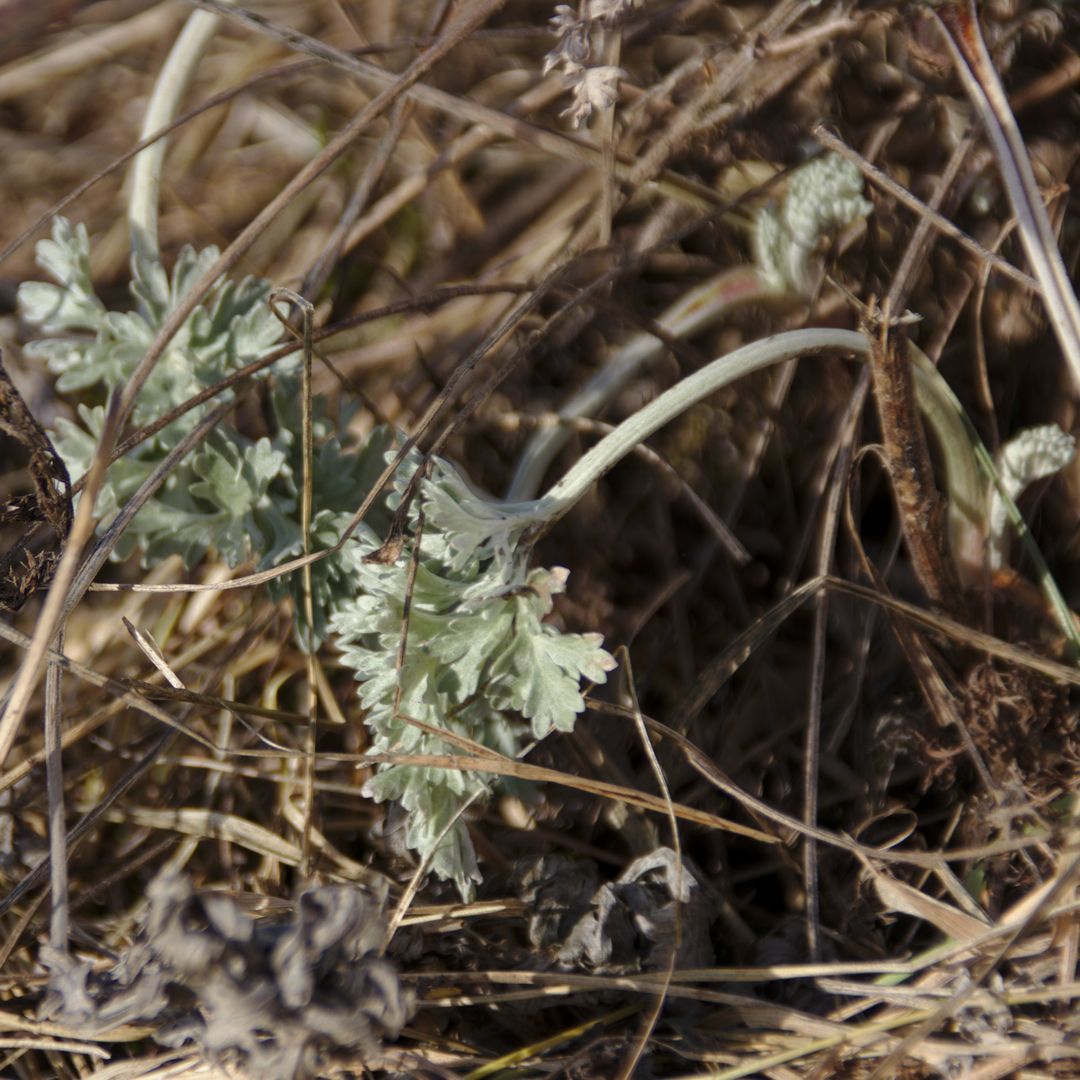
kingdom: Plantae
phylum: Tracheophyta
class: Magnoliopsida
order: Asterales
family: Asteraceae
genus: Artemisia
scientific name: Artemisia absinthium
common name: Wormwood
